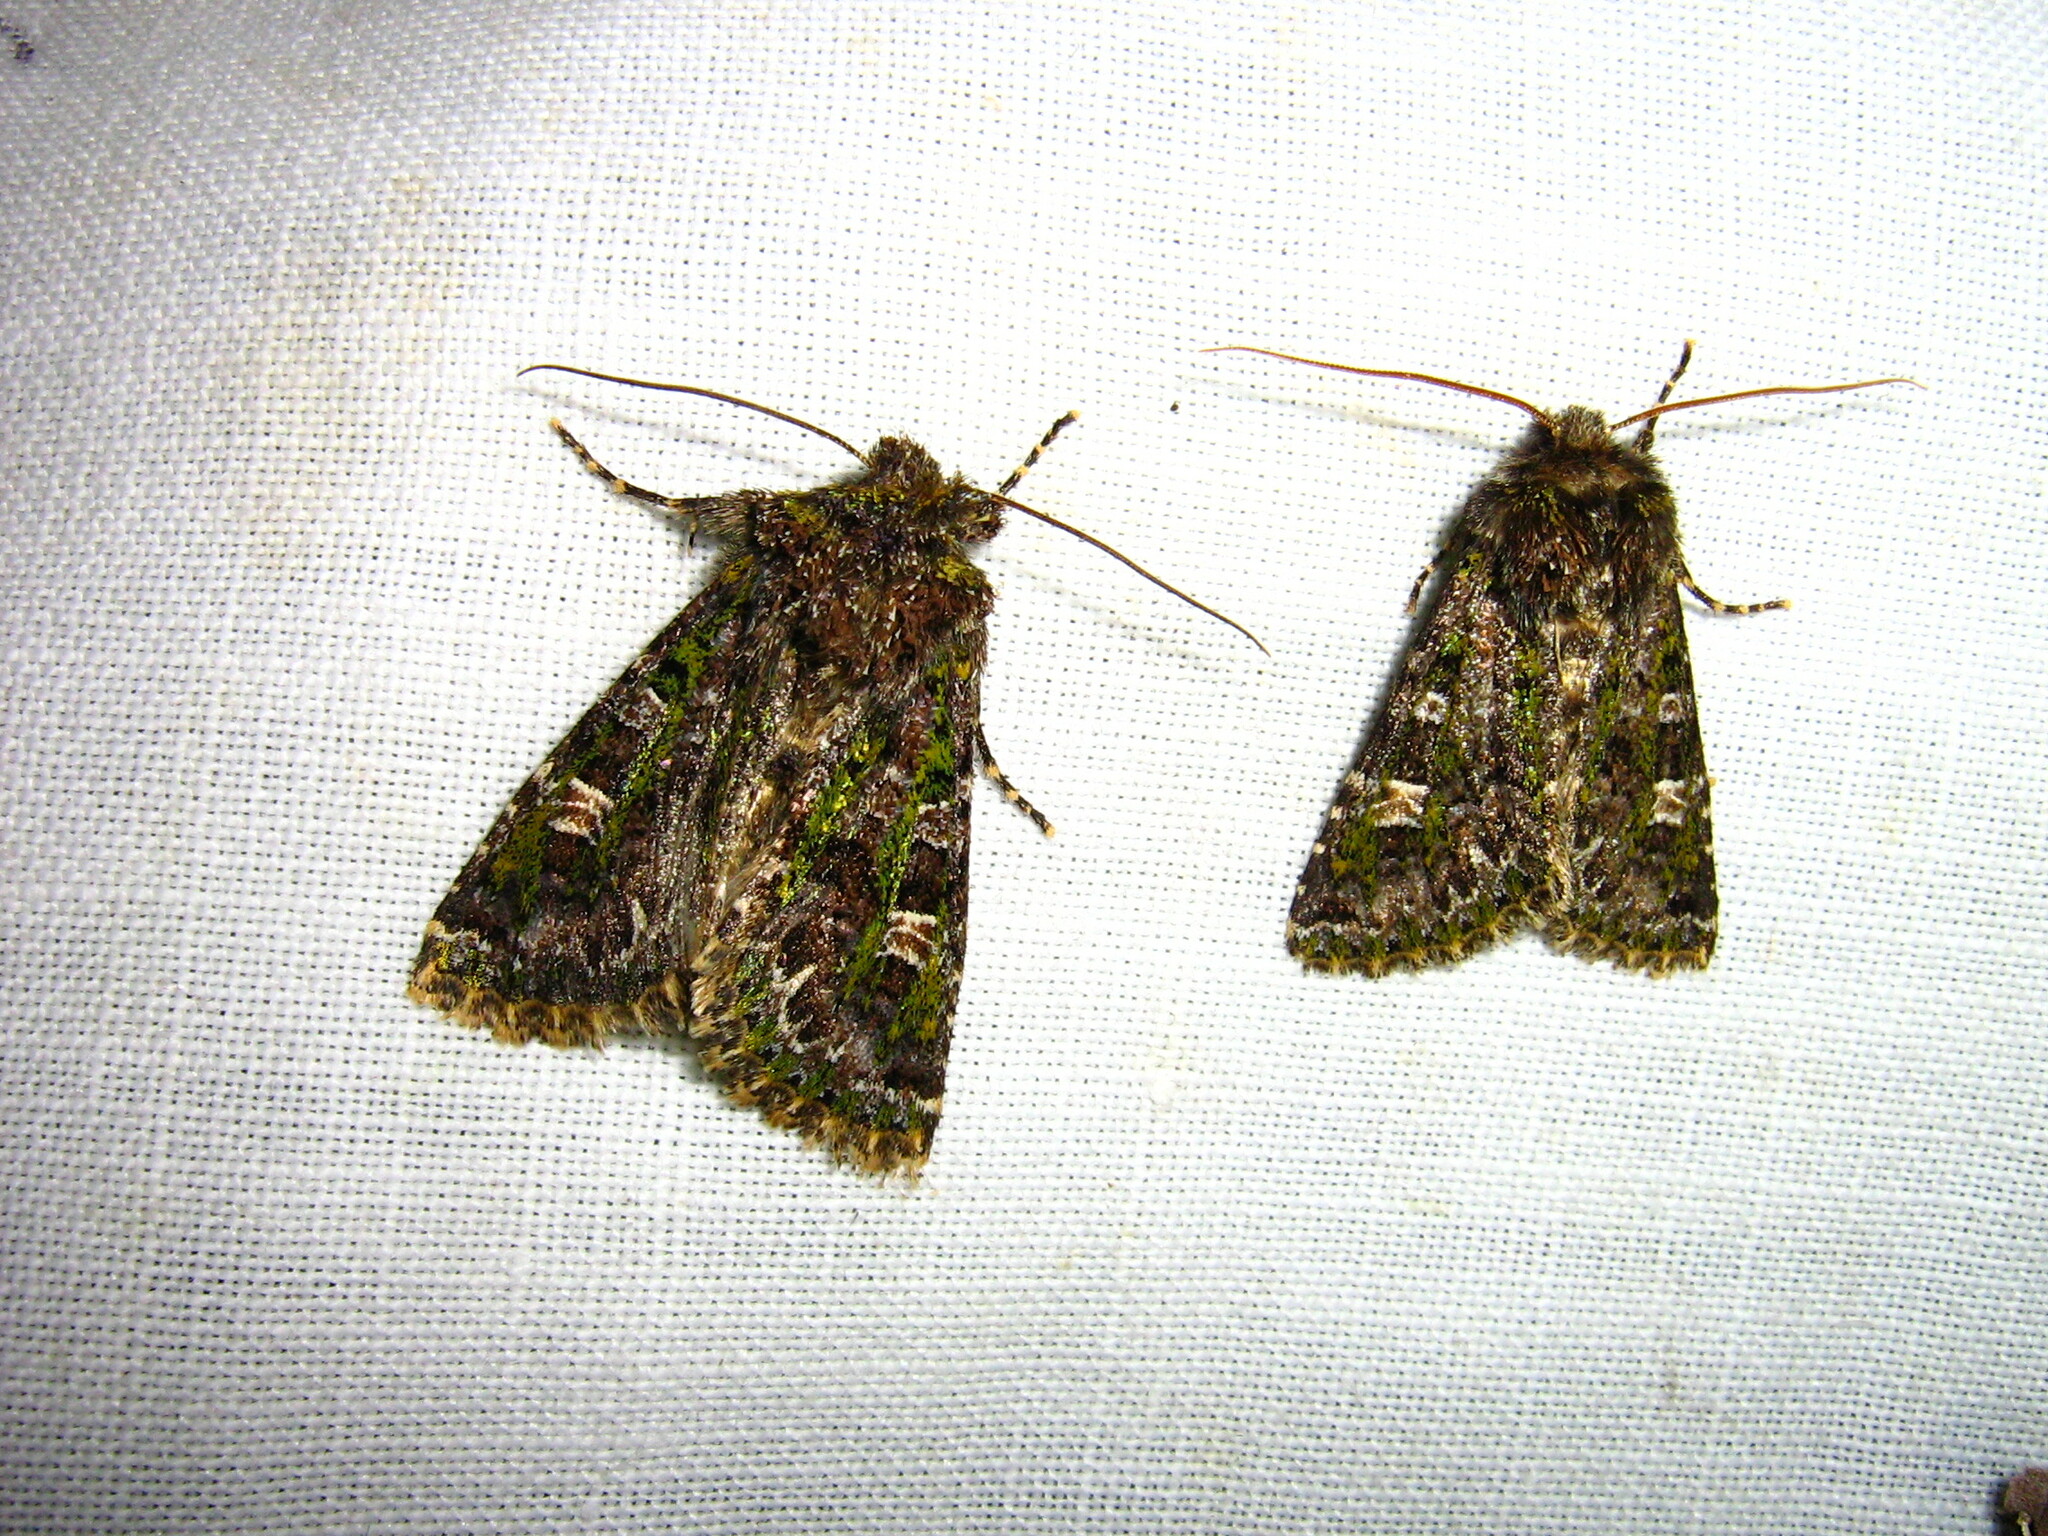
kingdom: Animalia
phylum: Arthropoda
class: Insecta
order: Lepidoptera
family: Noctuidae
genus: Valeria
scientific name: Valeria jaspidea
